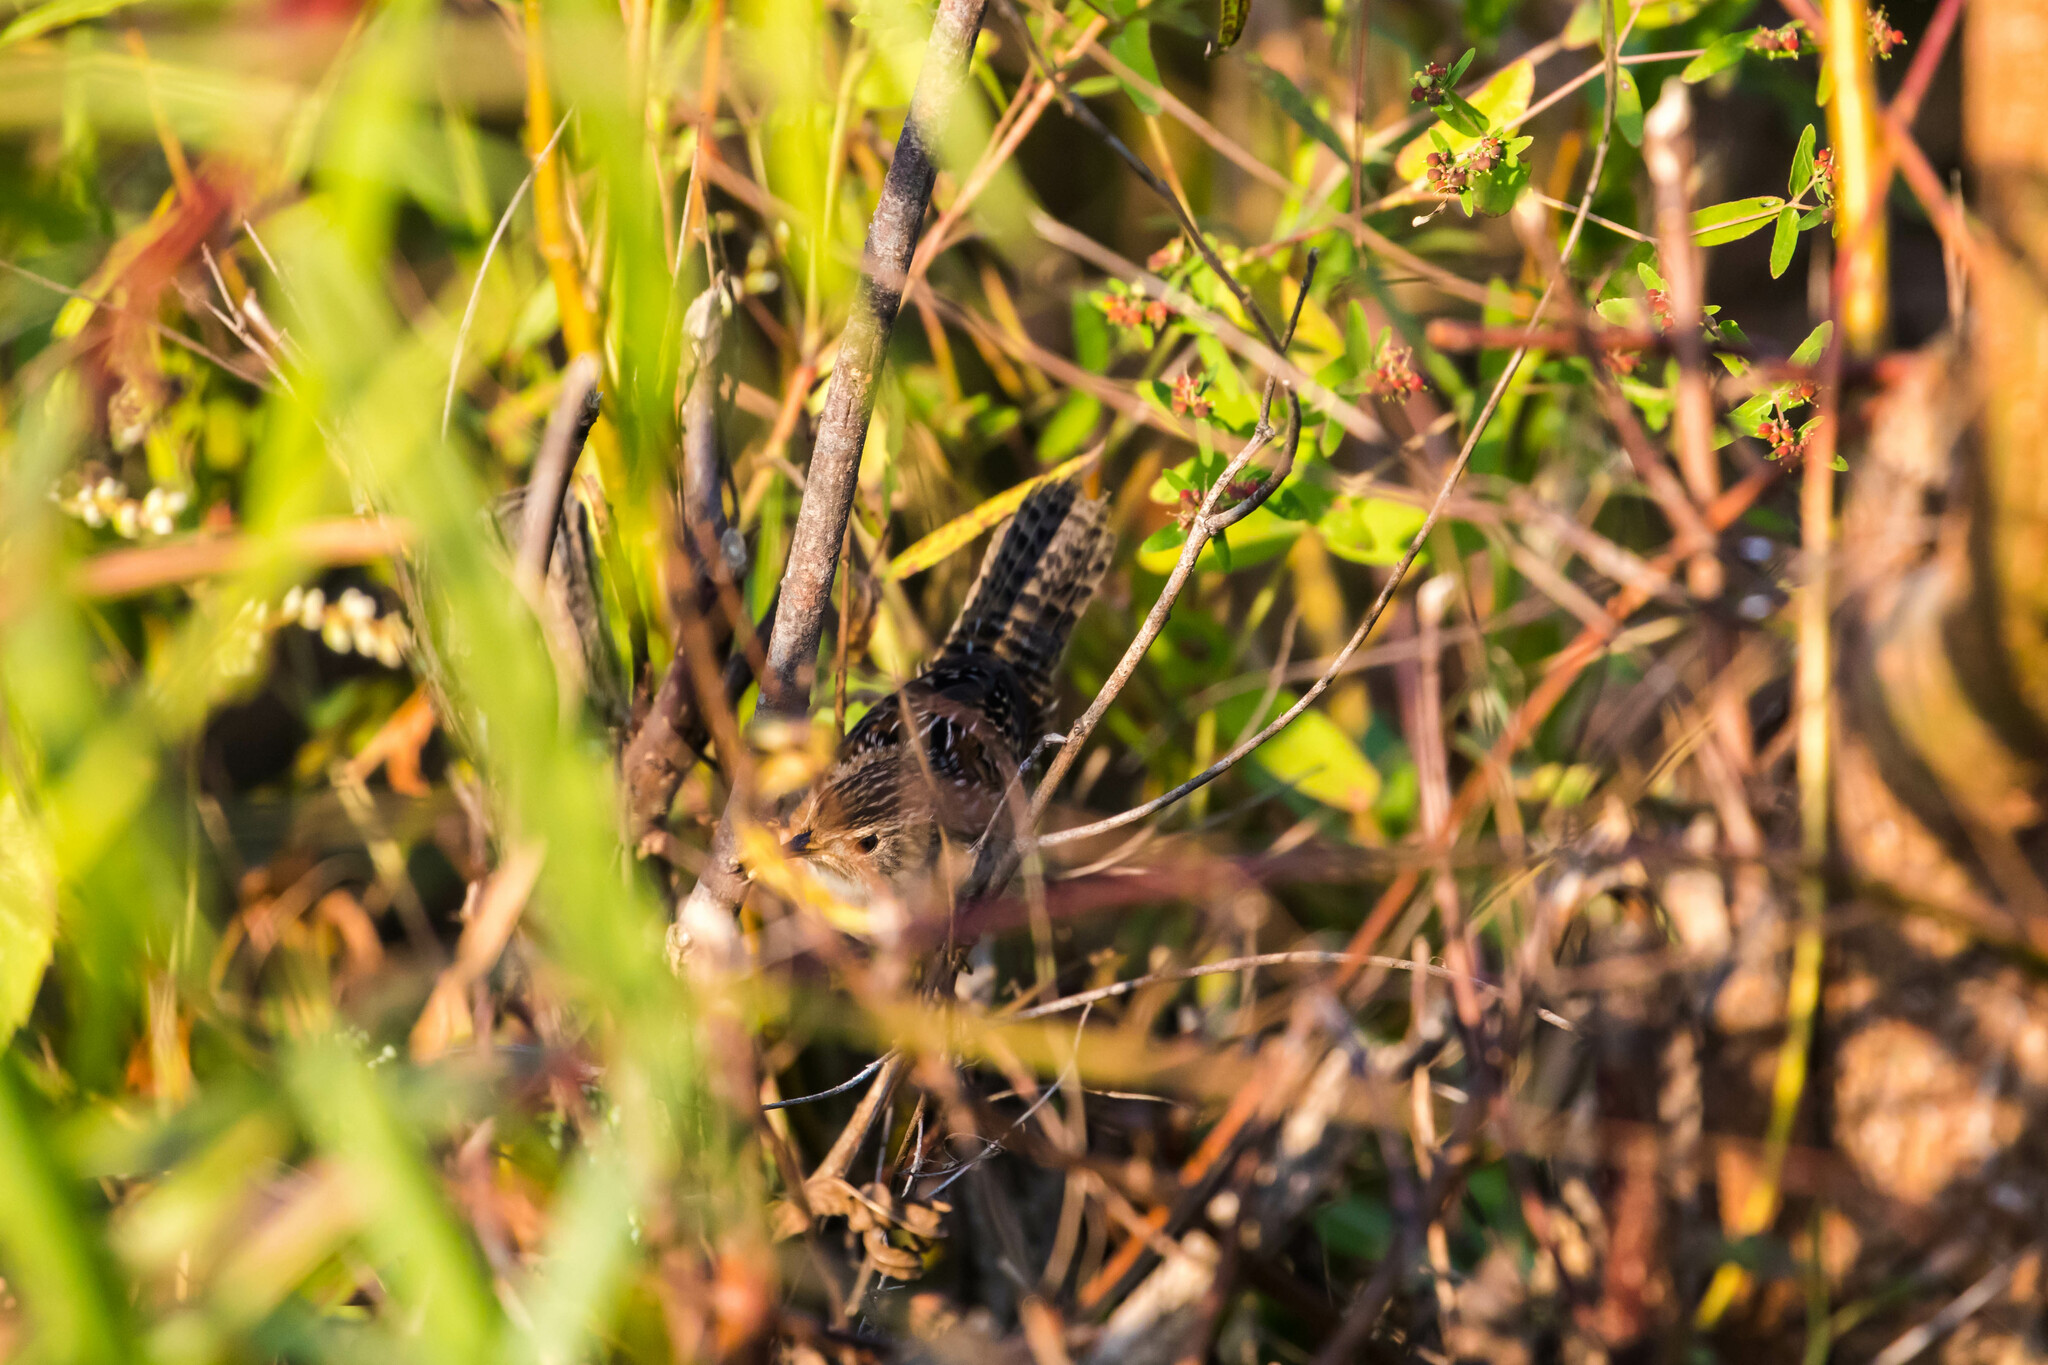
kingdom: Animalia
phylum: Chordata
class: Aves
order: Passeriformes
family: Troglodytidae
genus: Cistothorus
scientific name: Cistothorus platensis
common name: Sedge wren
